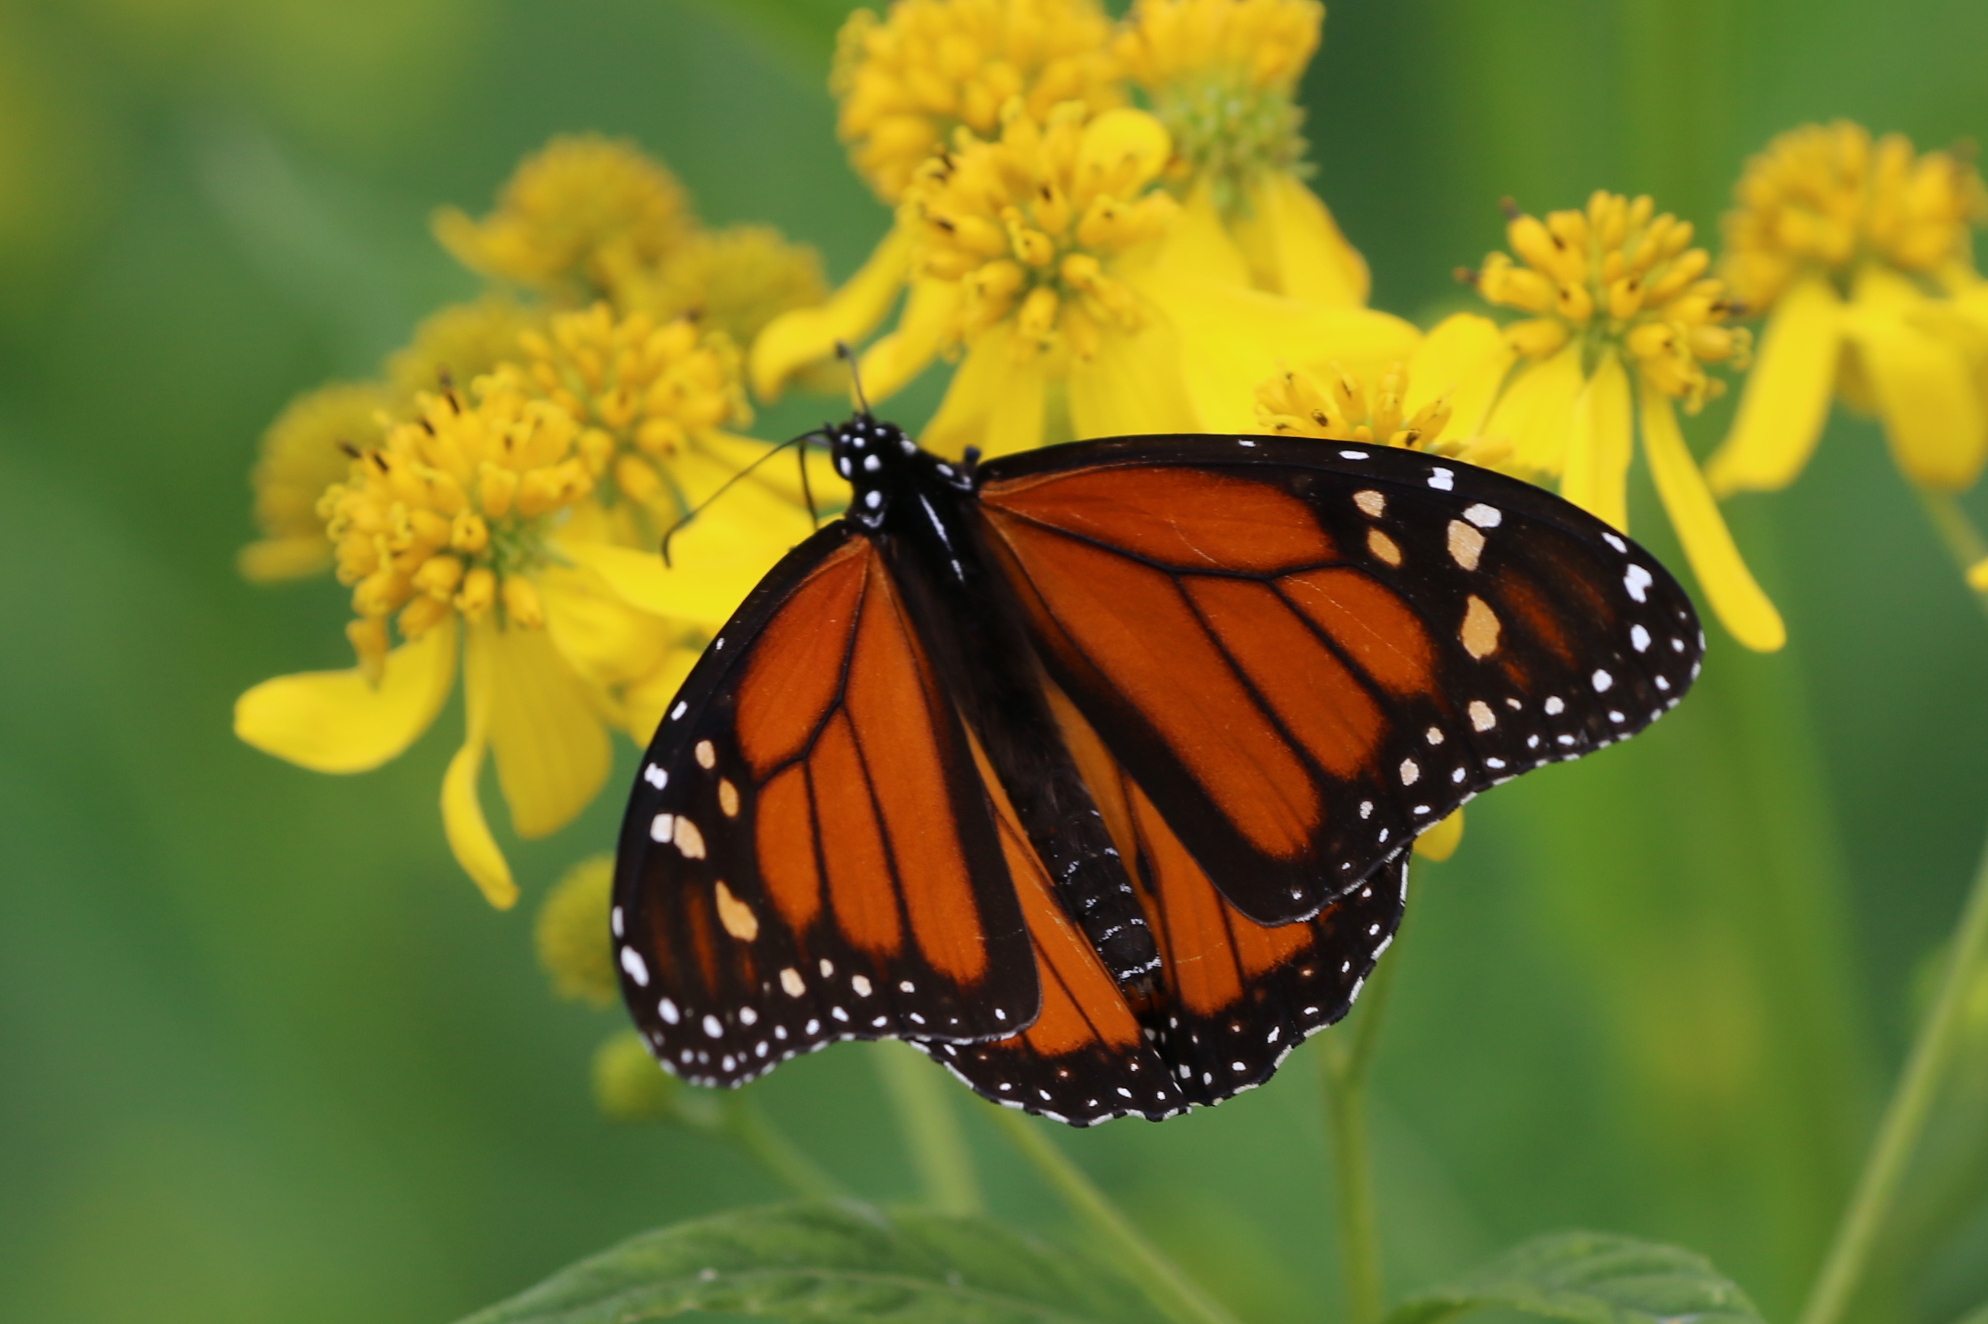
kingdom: Animalia
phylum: Arthropoda
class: Insecta
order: Lepidoptera
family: Nymphalidae
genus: Danaus
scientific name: Danaus plexippus
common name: Monarch
